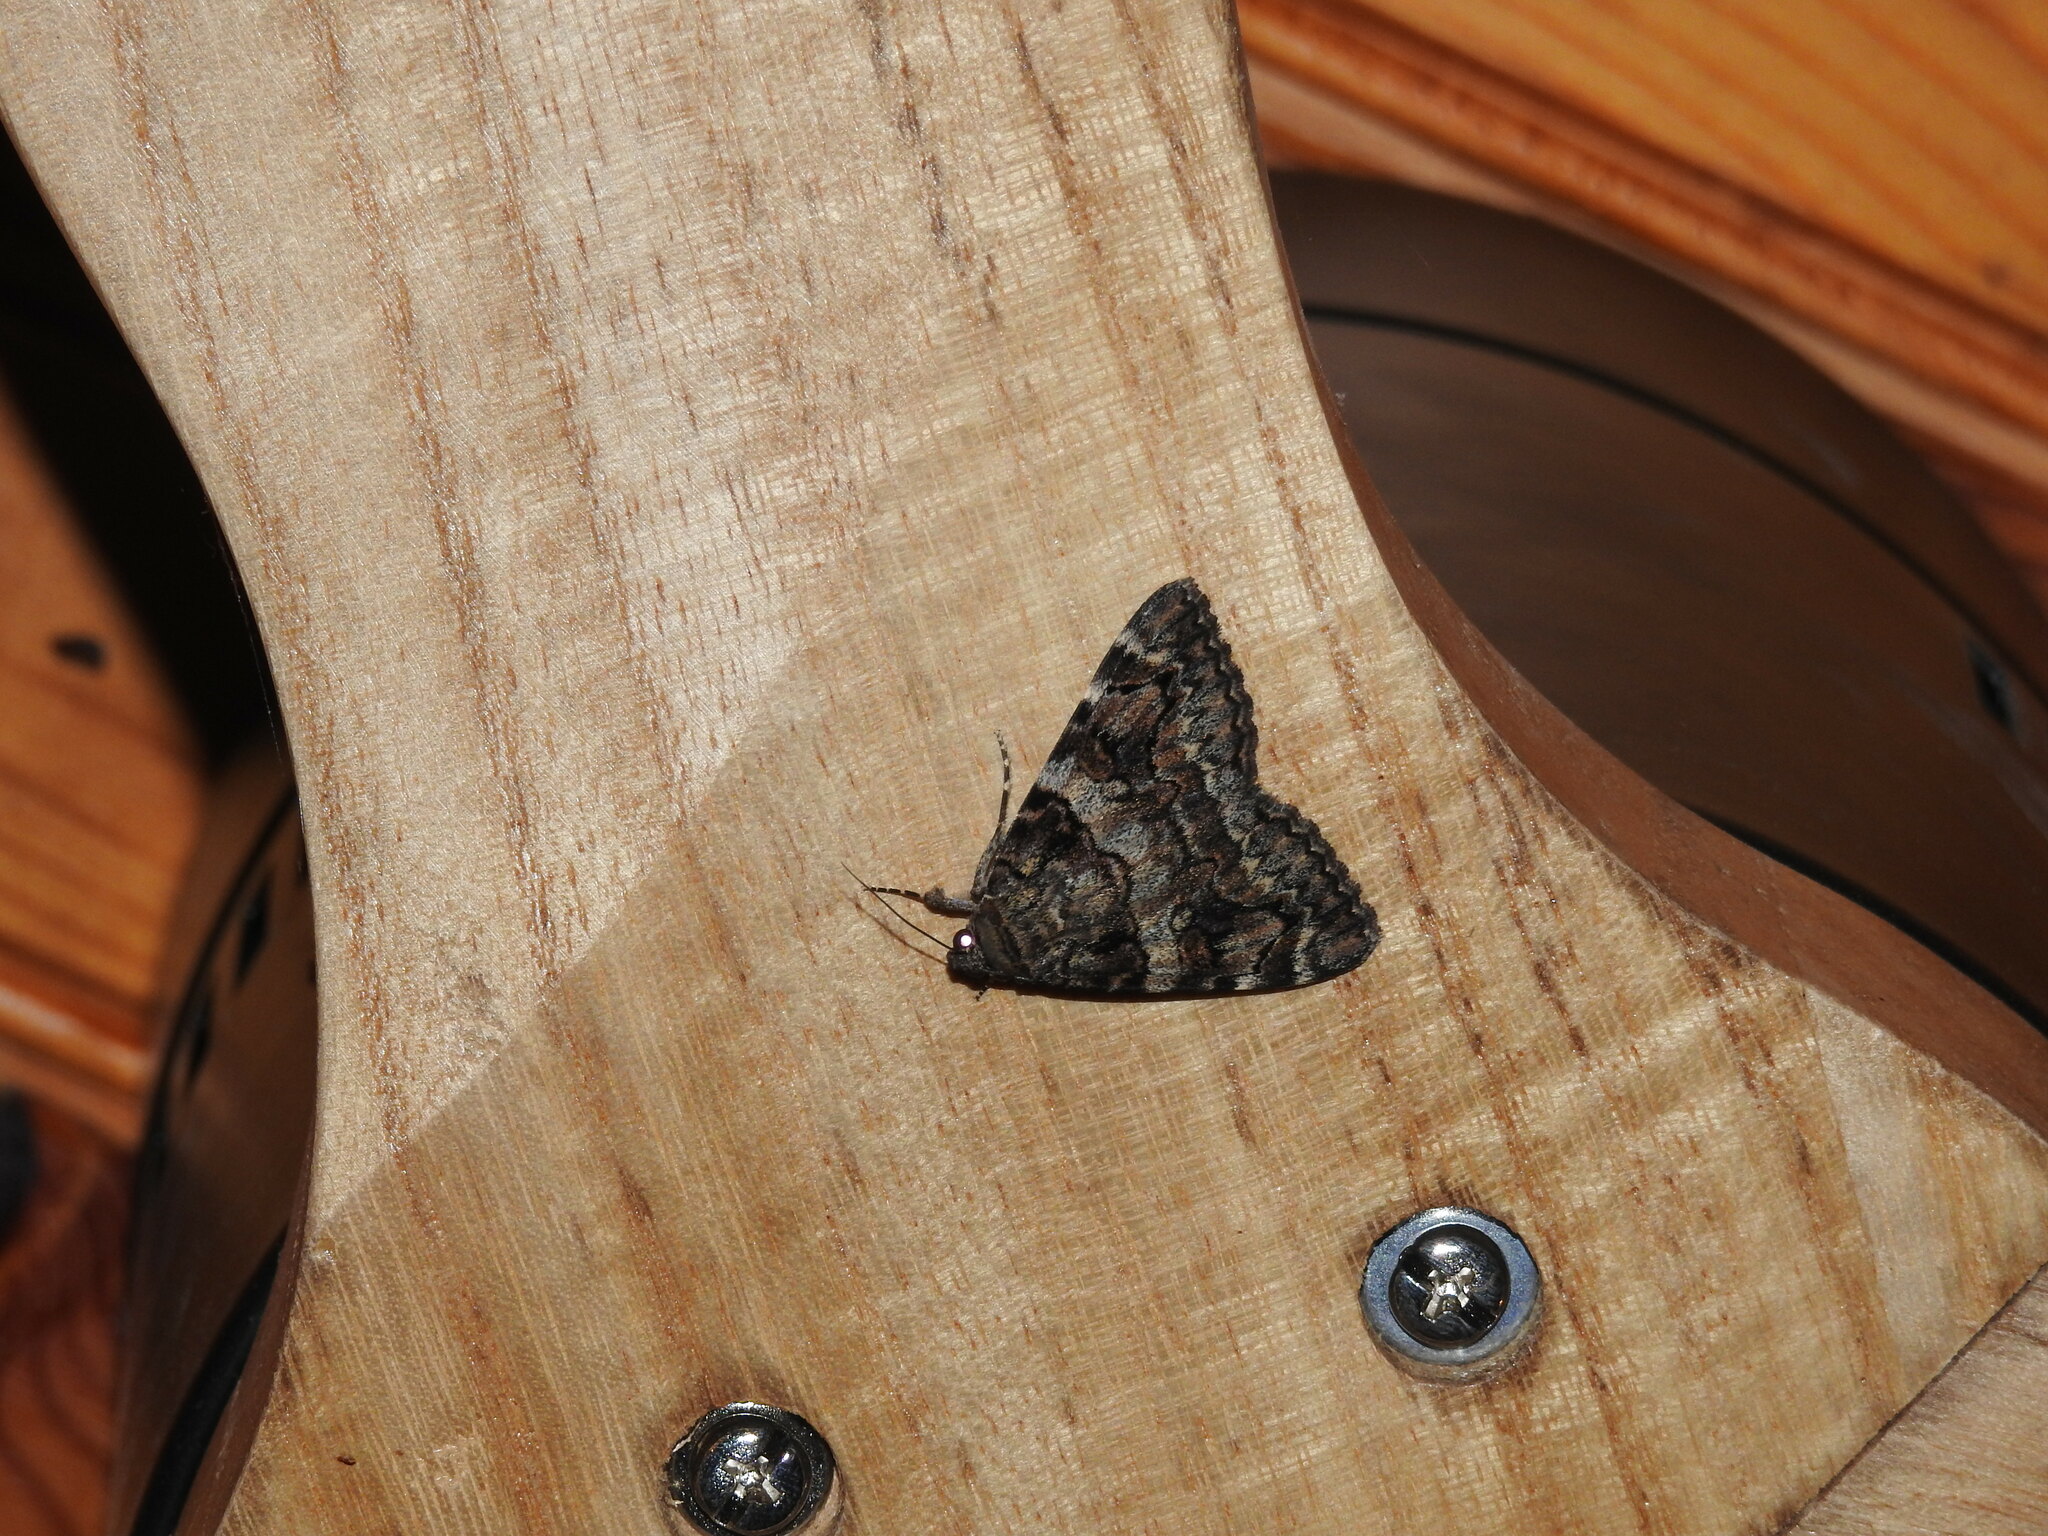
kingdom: Animalia
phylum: Arthropoda
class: Insecta
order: Lepidoptera
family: Erebidae
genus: Catocala
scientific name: Catocala coniuncta
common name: Minsmere crimson underwing
